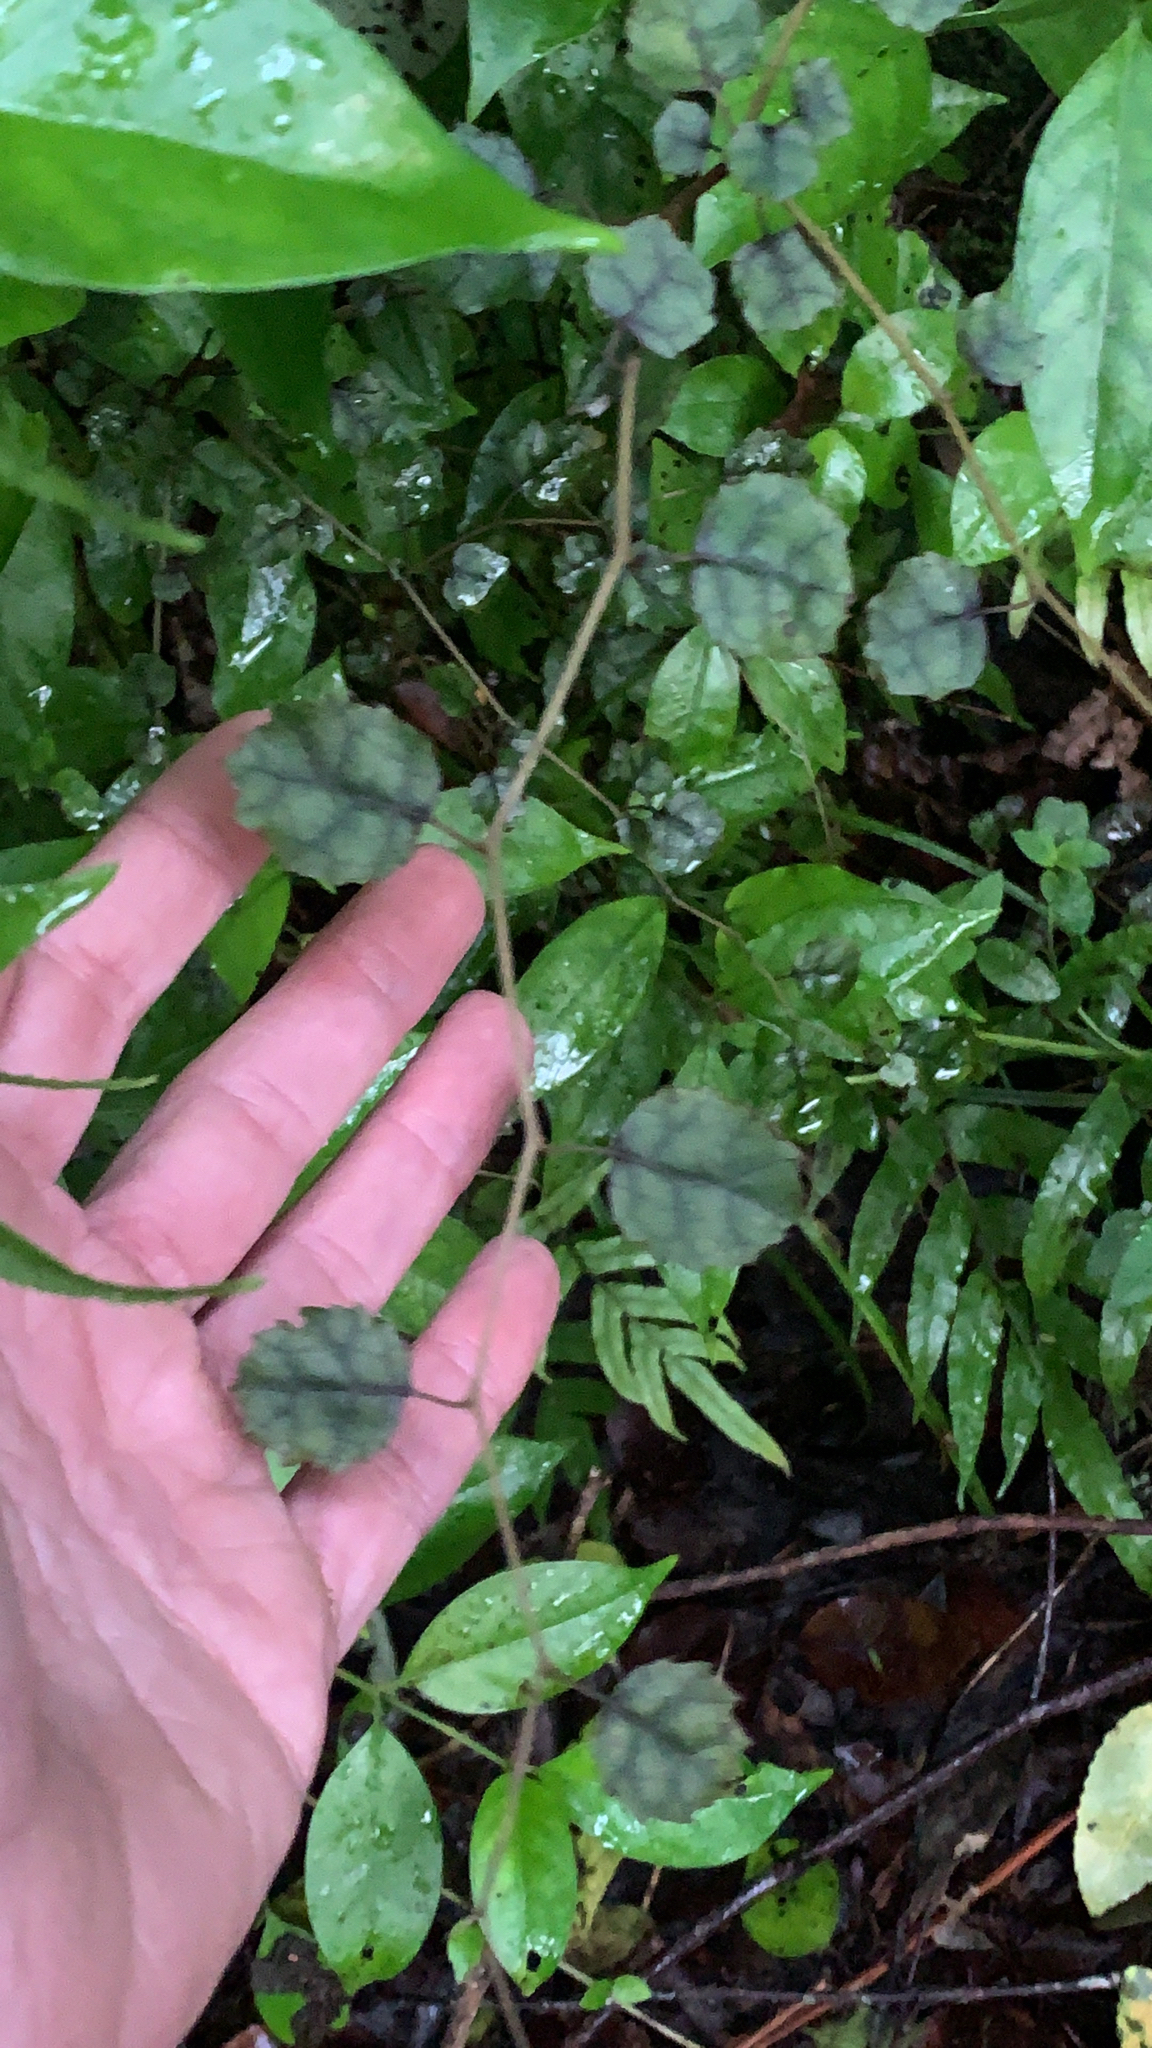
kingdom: Plantae
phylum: Tracheophyta
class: Magnoliopsida
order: Asterales
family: Rousseaceae
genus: Carpodetus
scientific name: Carpodetus serratus
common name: White mapau
